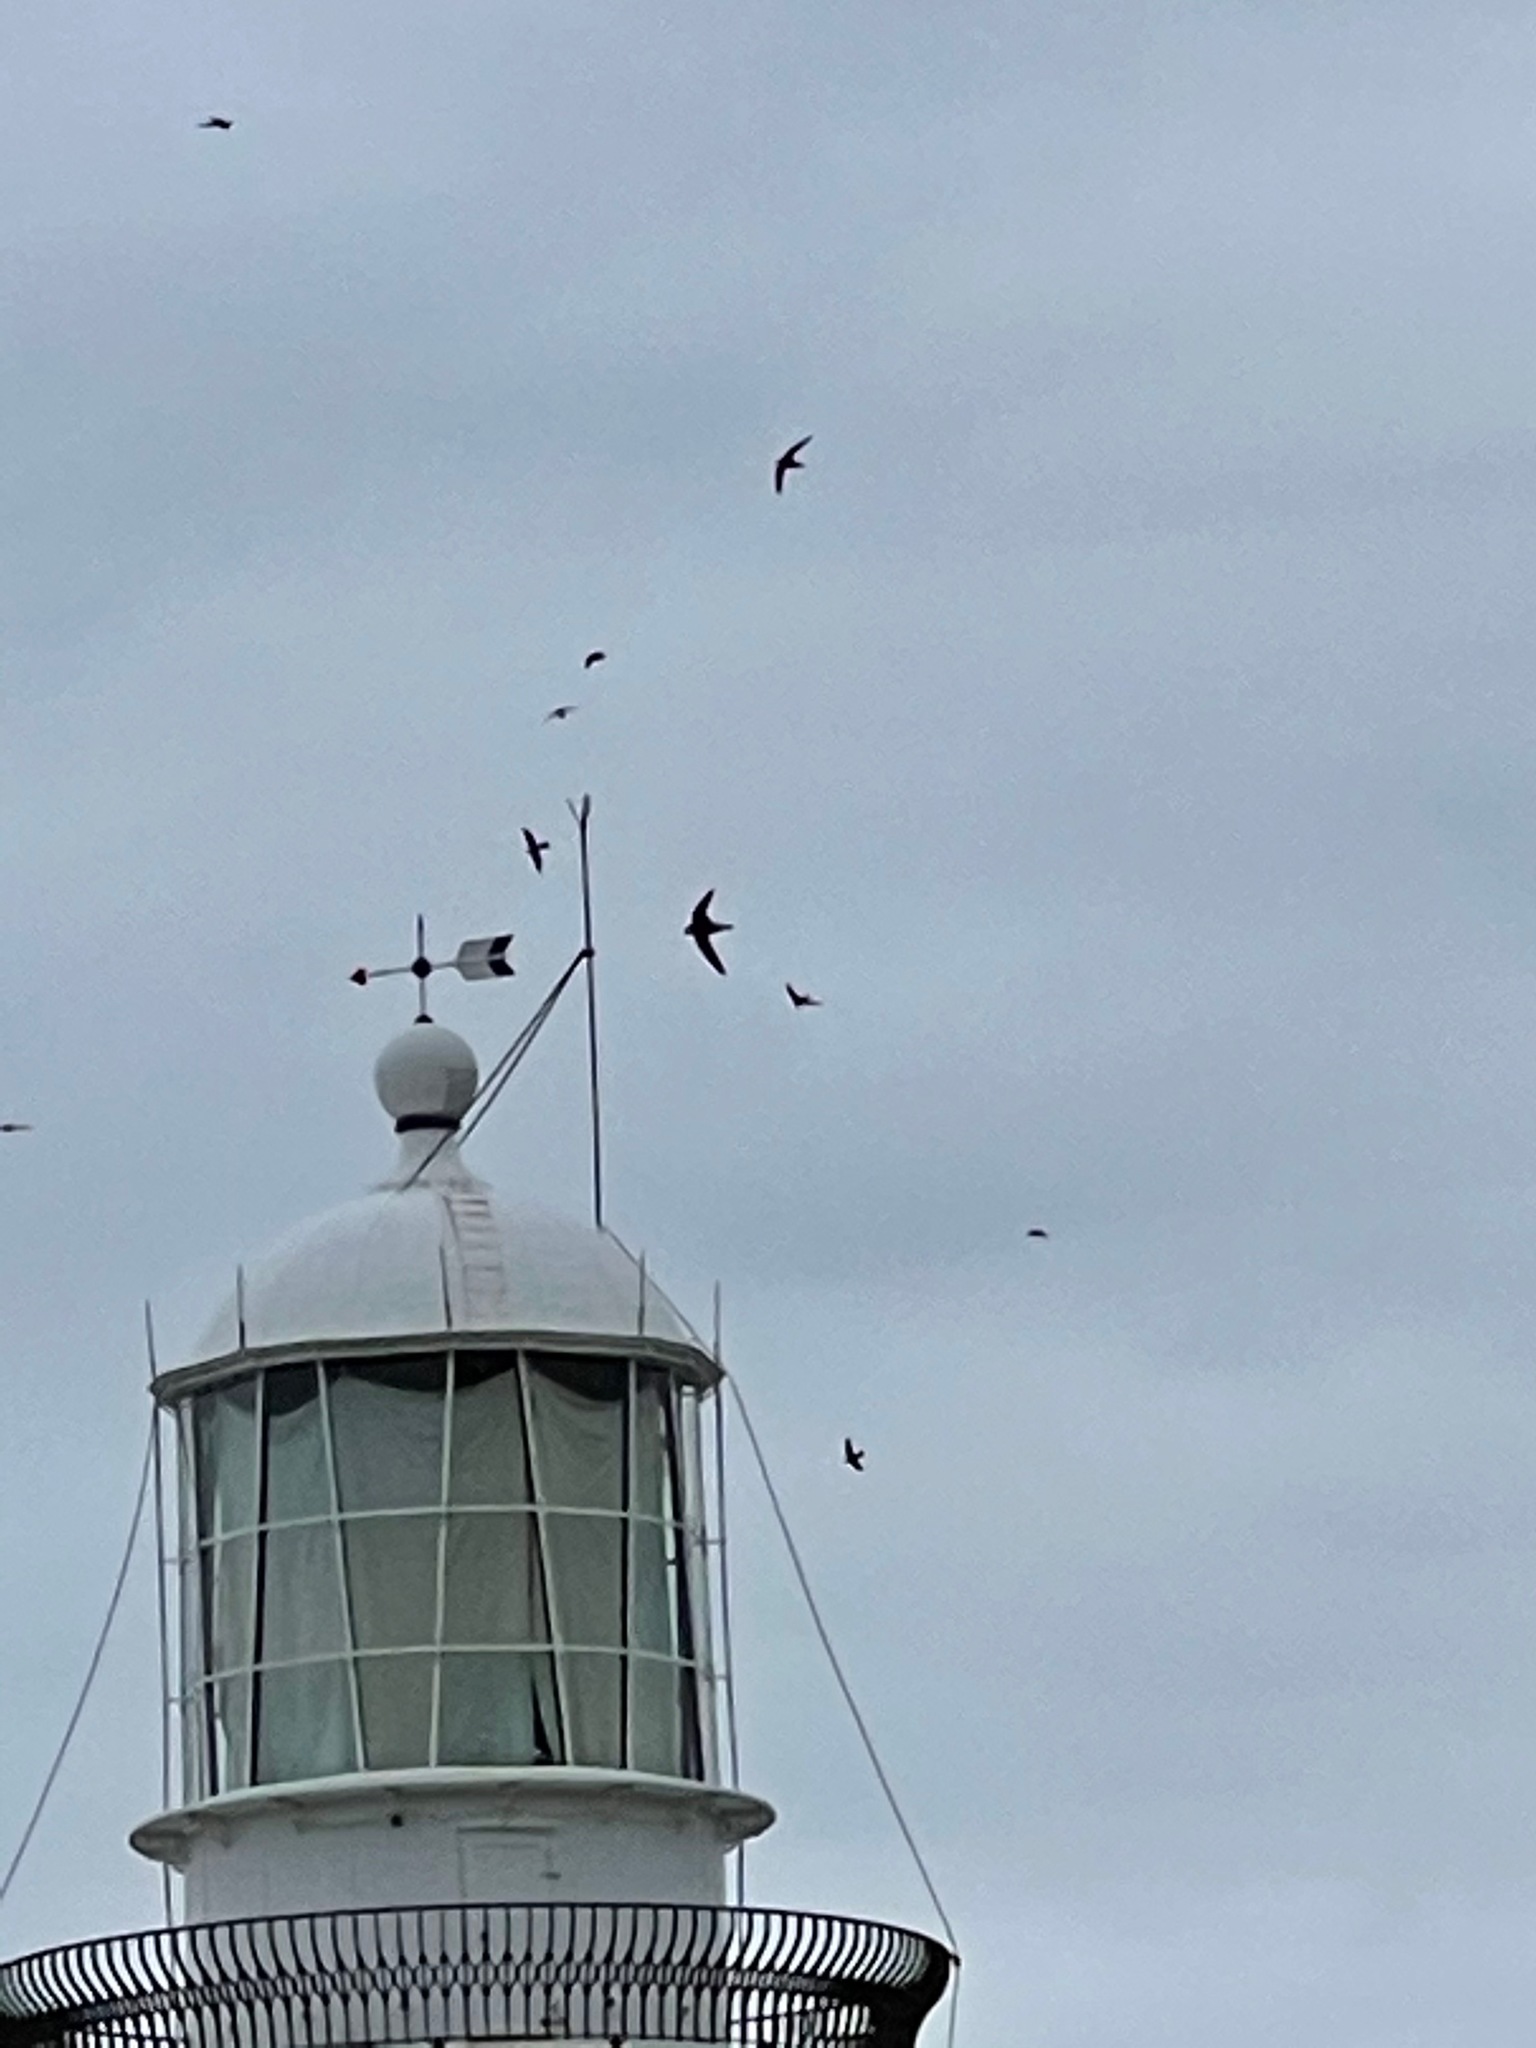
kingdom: Animalia
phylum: Chordata
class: Aves
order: Apodiformes
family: Apodidae
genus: Hirundapus
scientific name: Hirundapus caudacutus
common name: White-throated needletail
